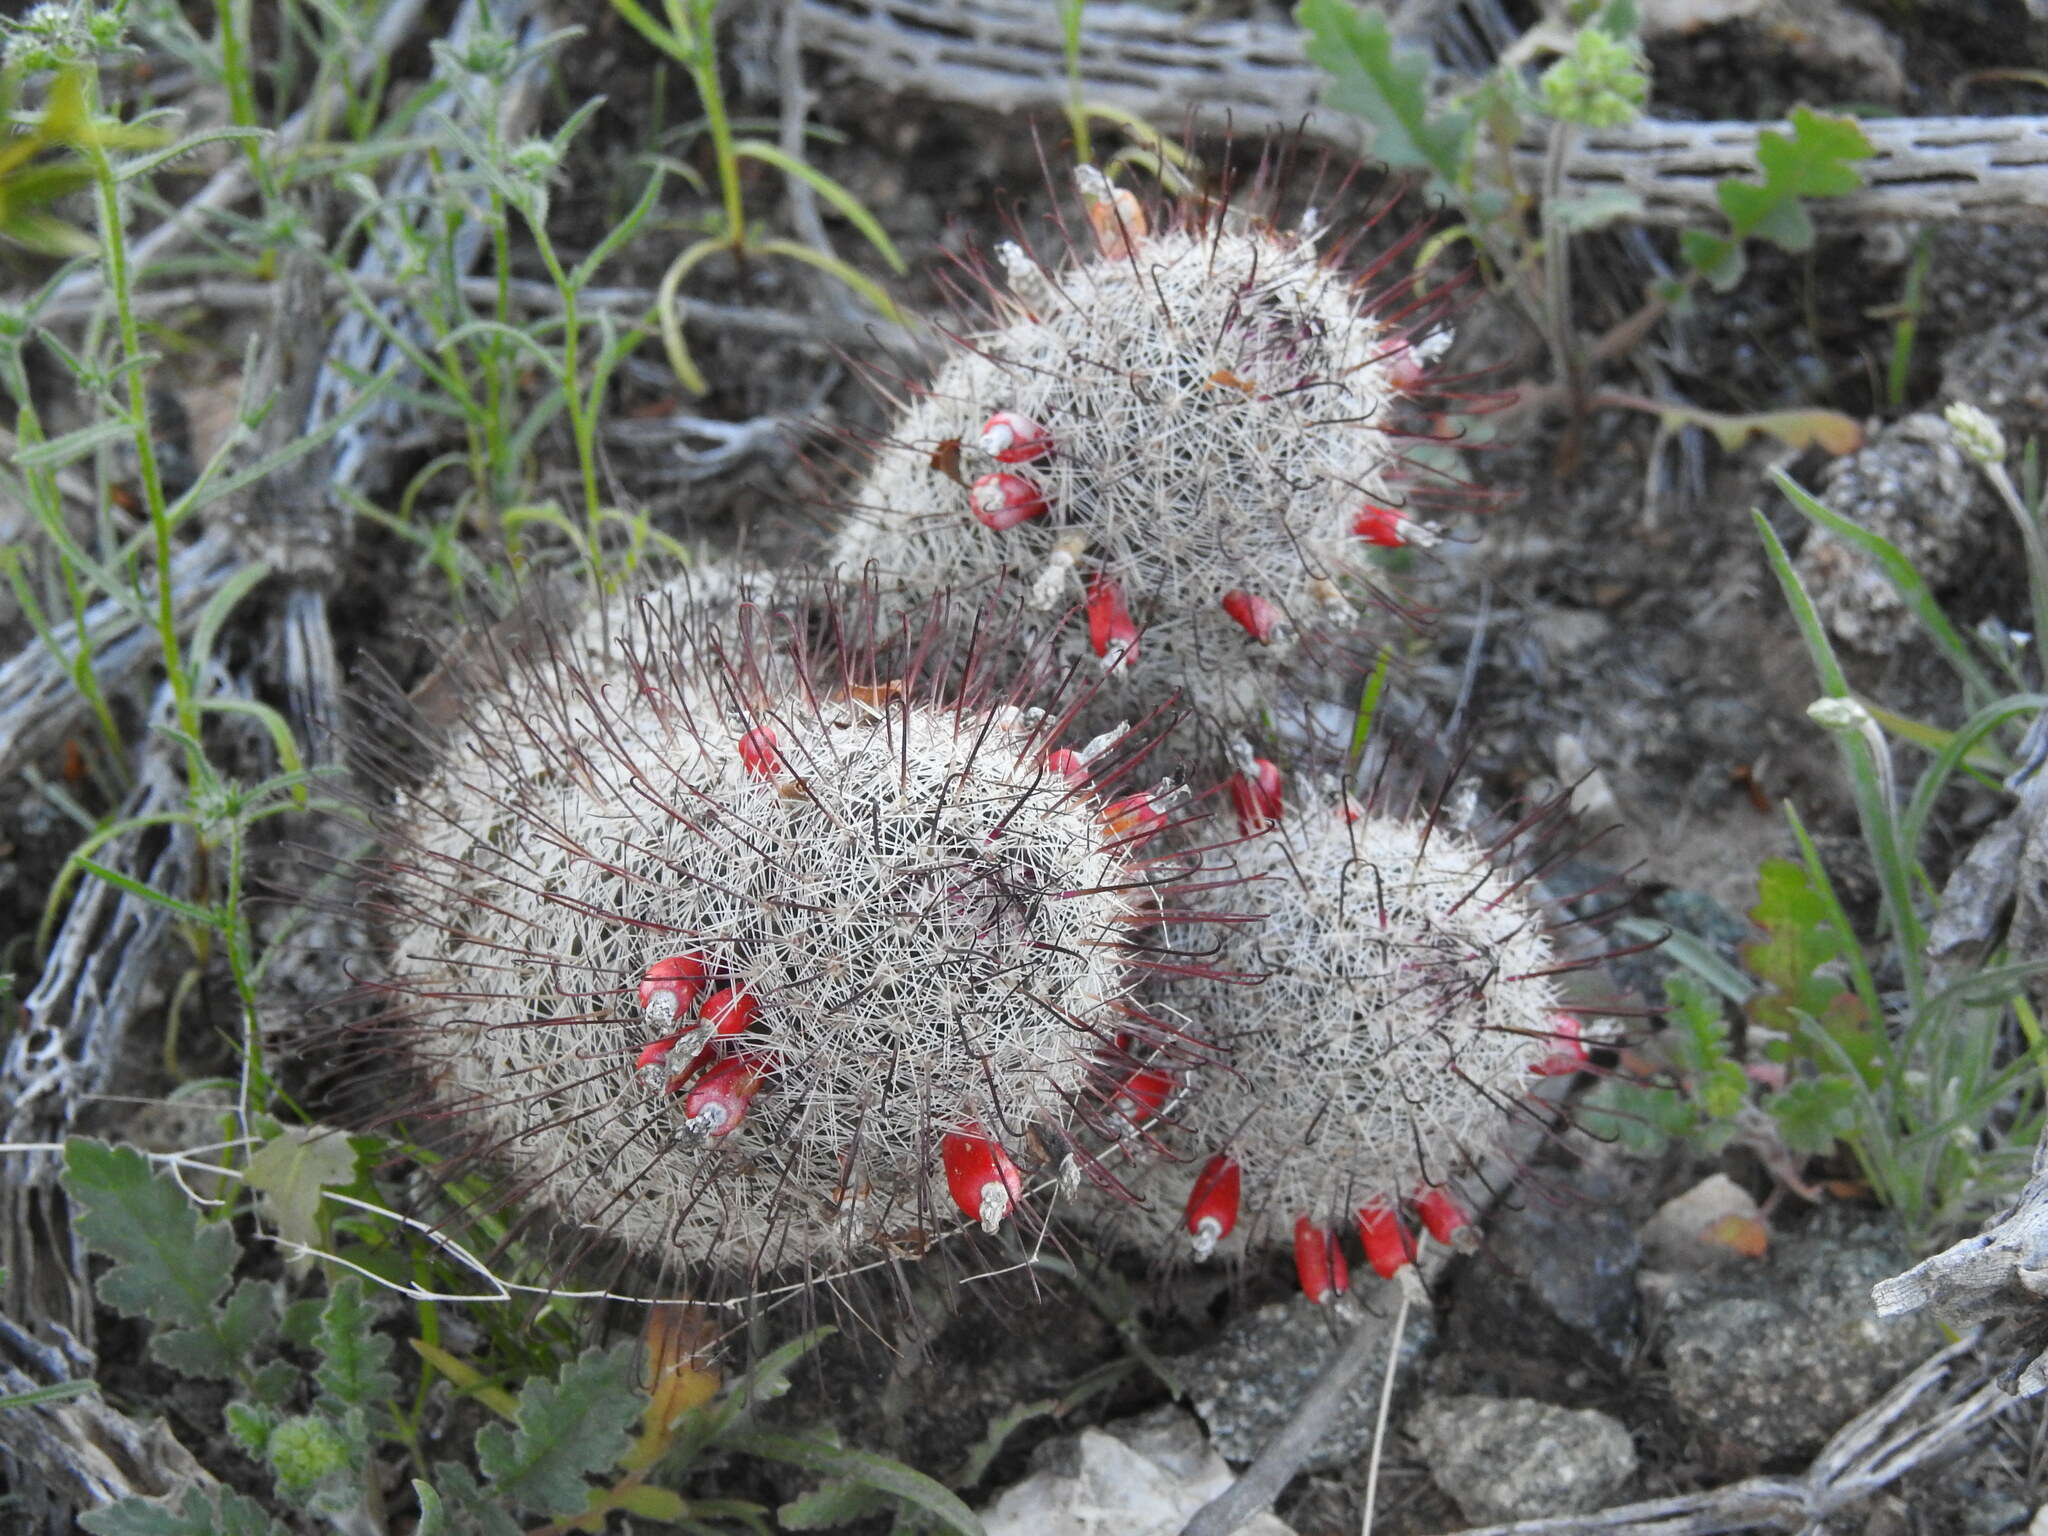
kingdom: Plantae
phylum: Tracheophyta
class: Magnoliopsida
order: Caryophyllales
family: Cactaceae
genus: Cochemiea
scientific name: Cochemiea grahamii
